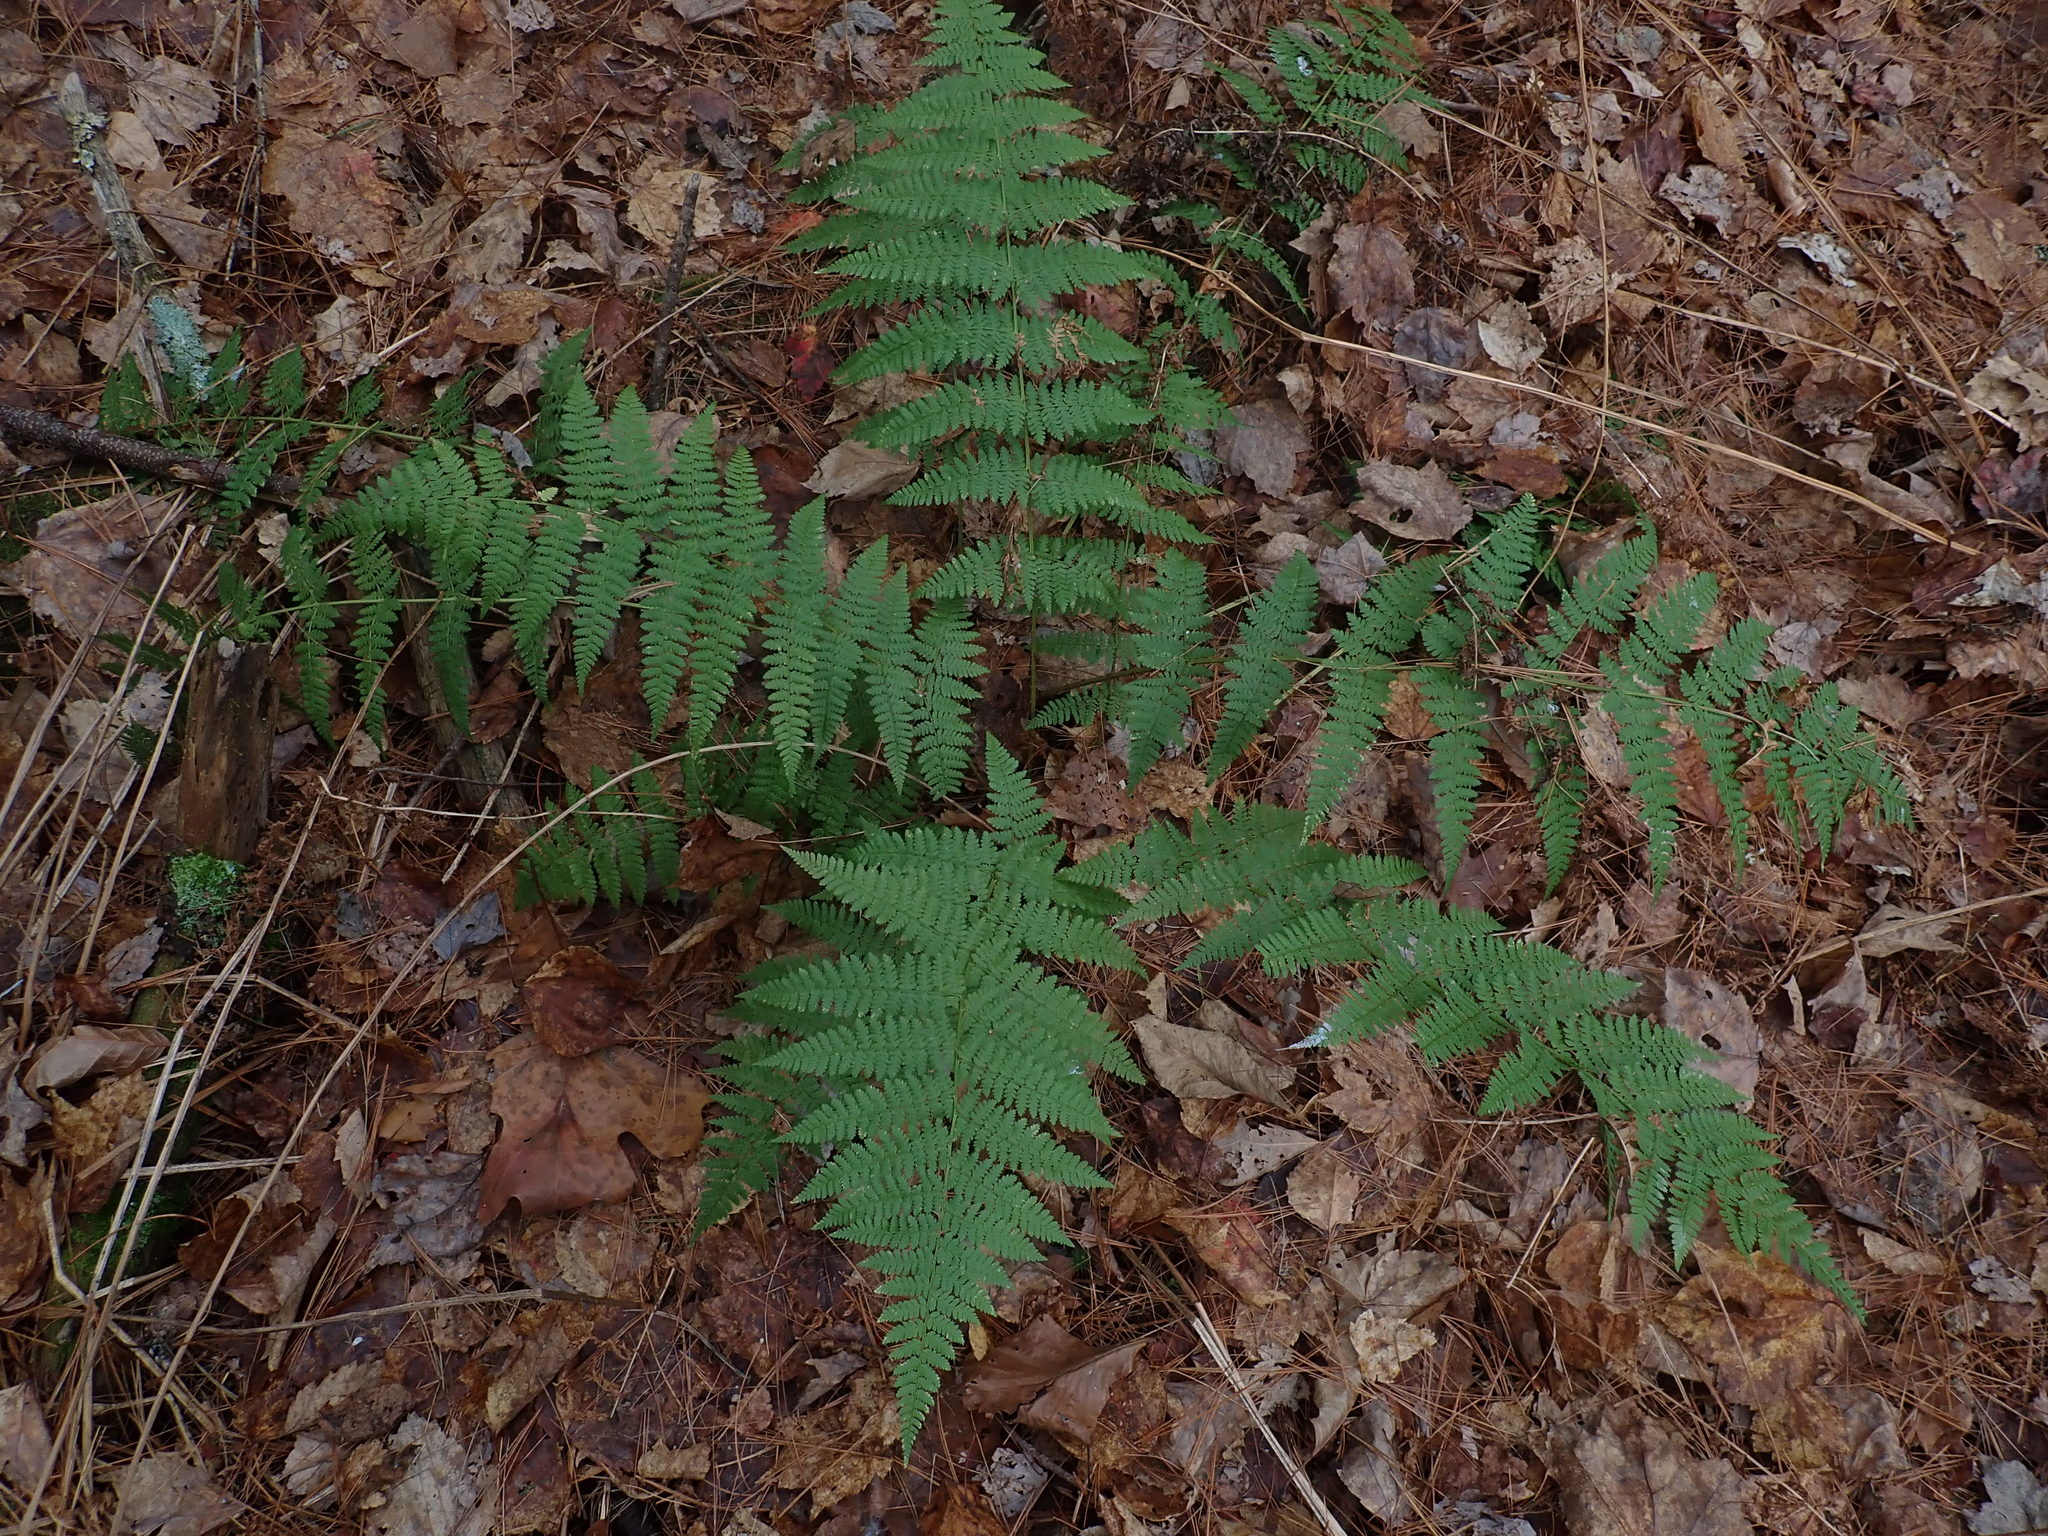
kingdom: Plantae
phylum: Tracheophyta
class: Polypodiopsida
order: Polypodiales
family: Dryopteridaceae
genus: Dryopteris
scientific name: Dryopteris intermedia
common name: Evergreen wood fern
